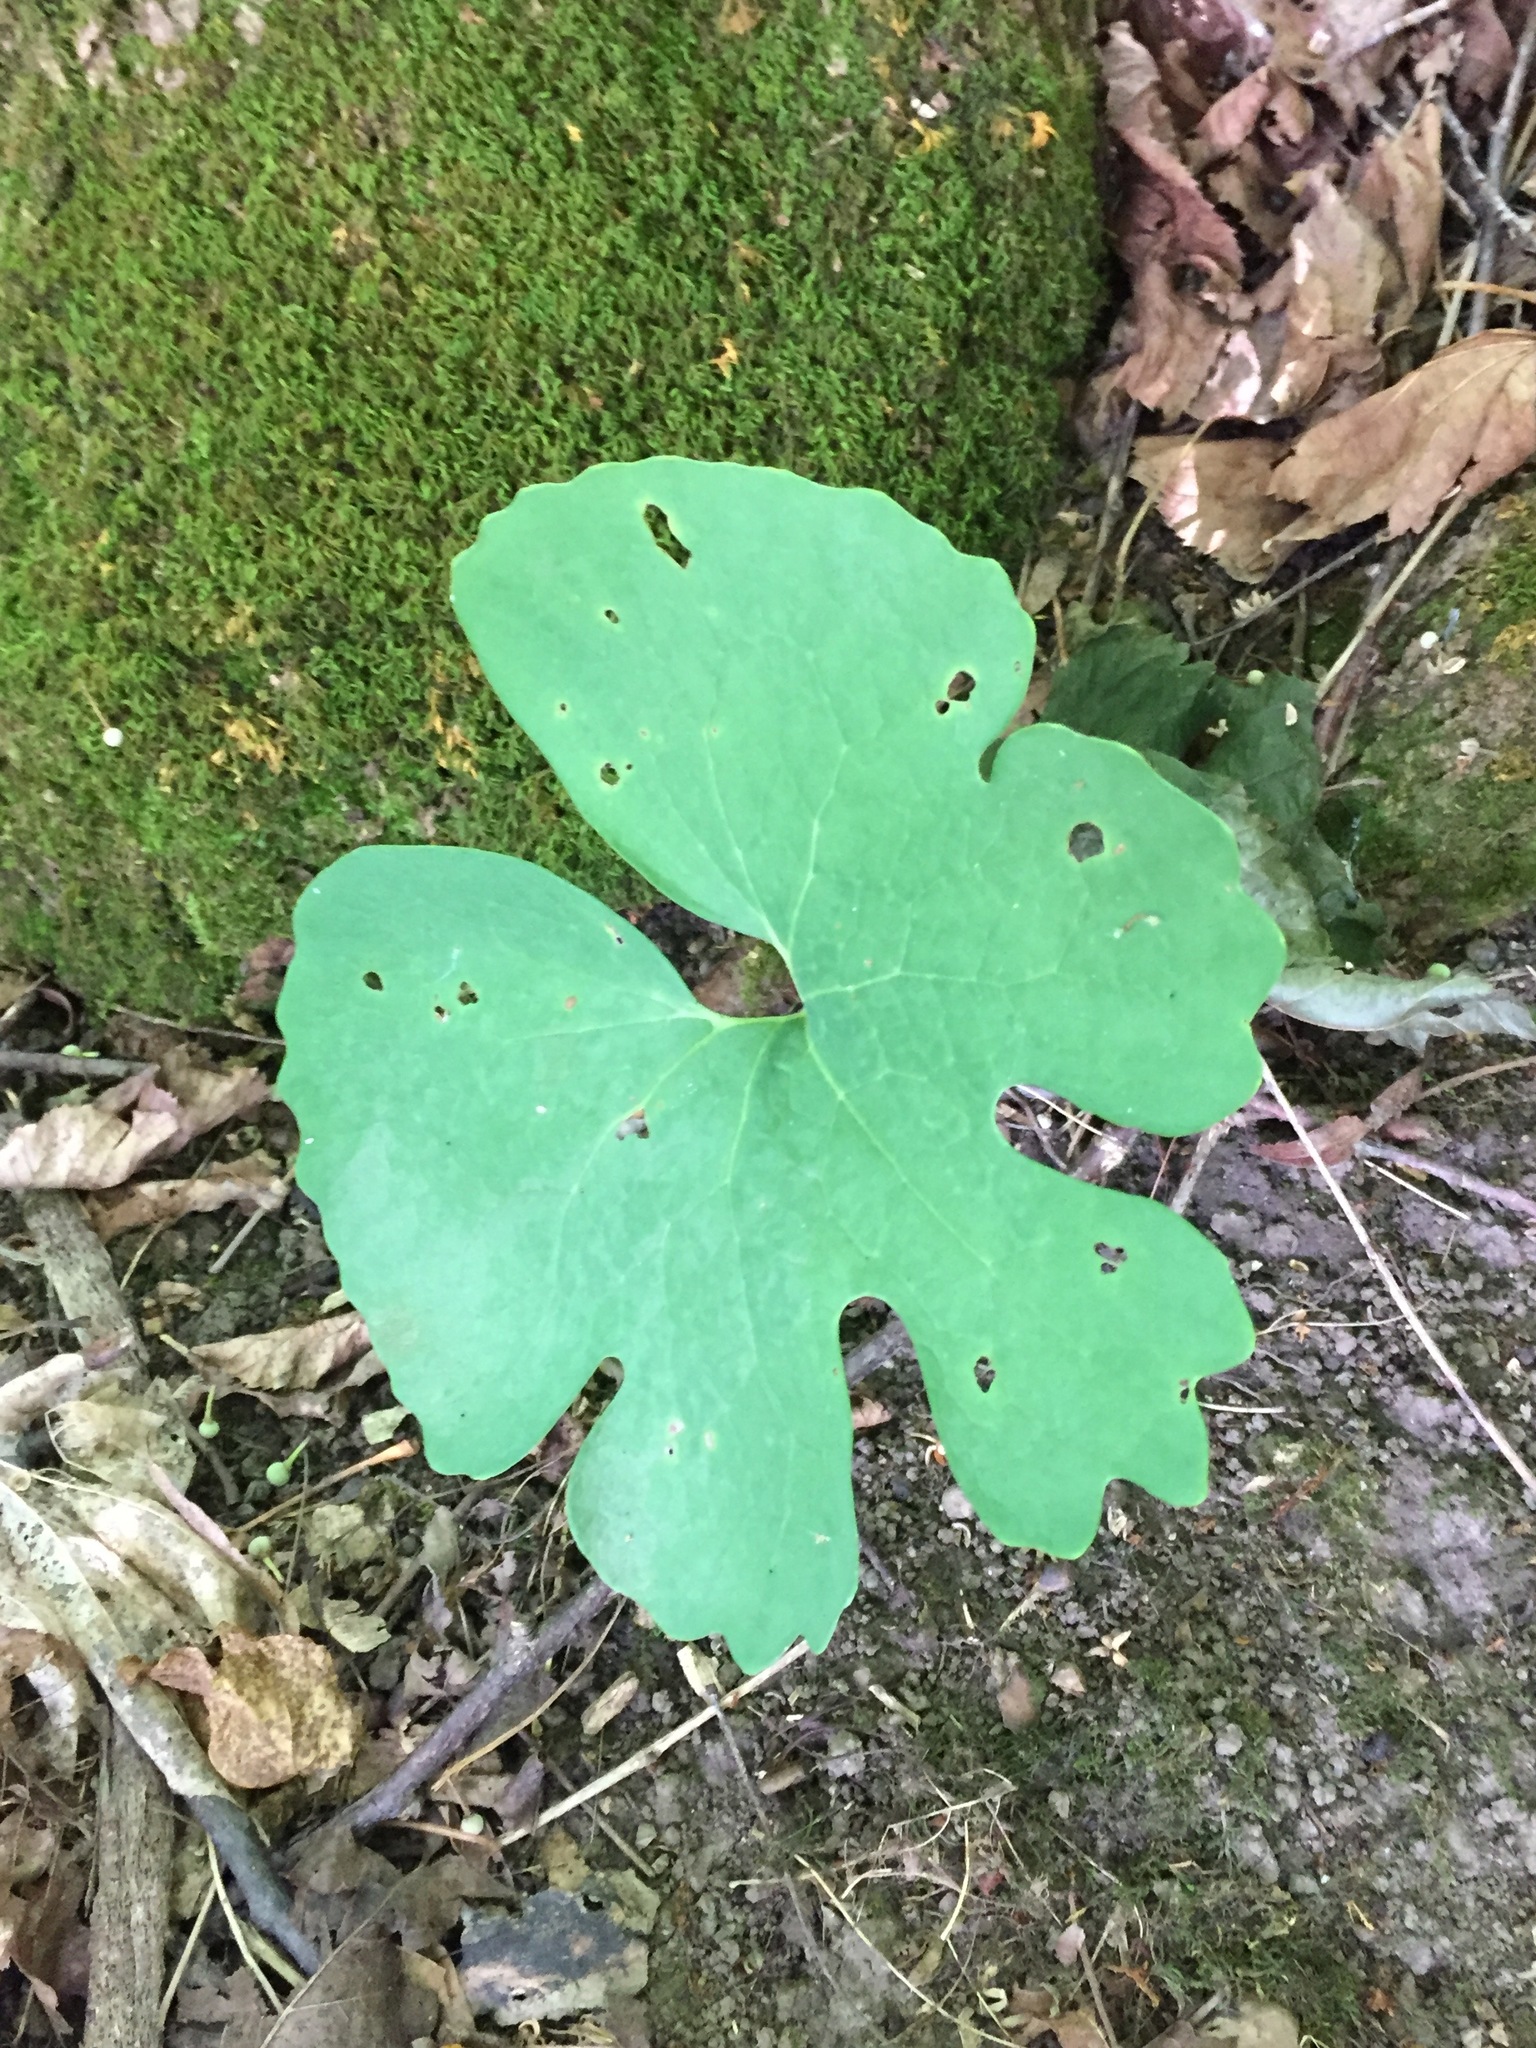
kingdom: Plantae
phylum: Tracheophyta
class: Magnoliopsida
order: Ranunculales
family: Papaveraceae
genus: Sanguinaria
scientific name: Sanguinaria canadensis
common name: Bloodroot
